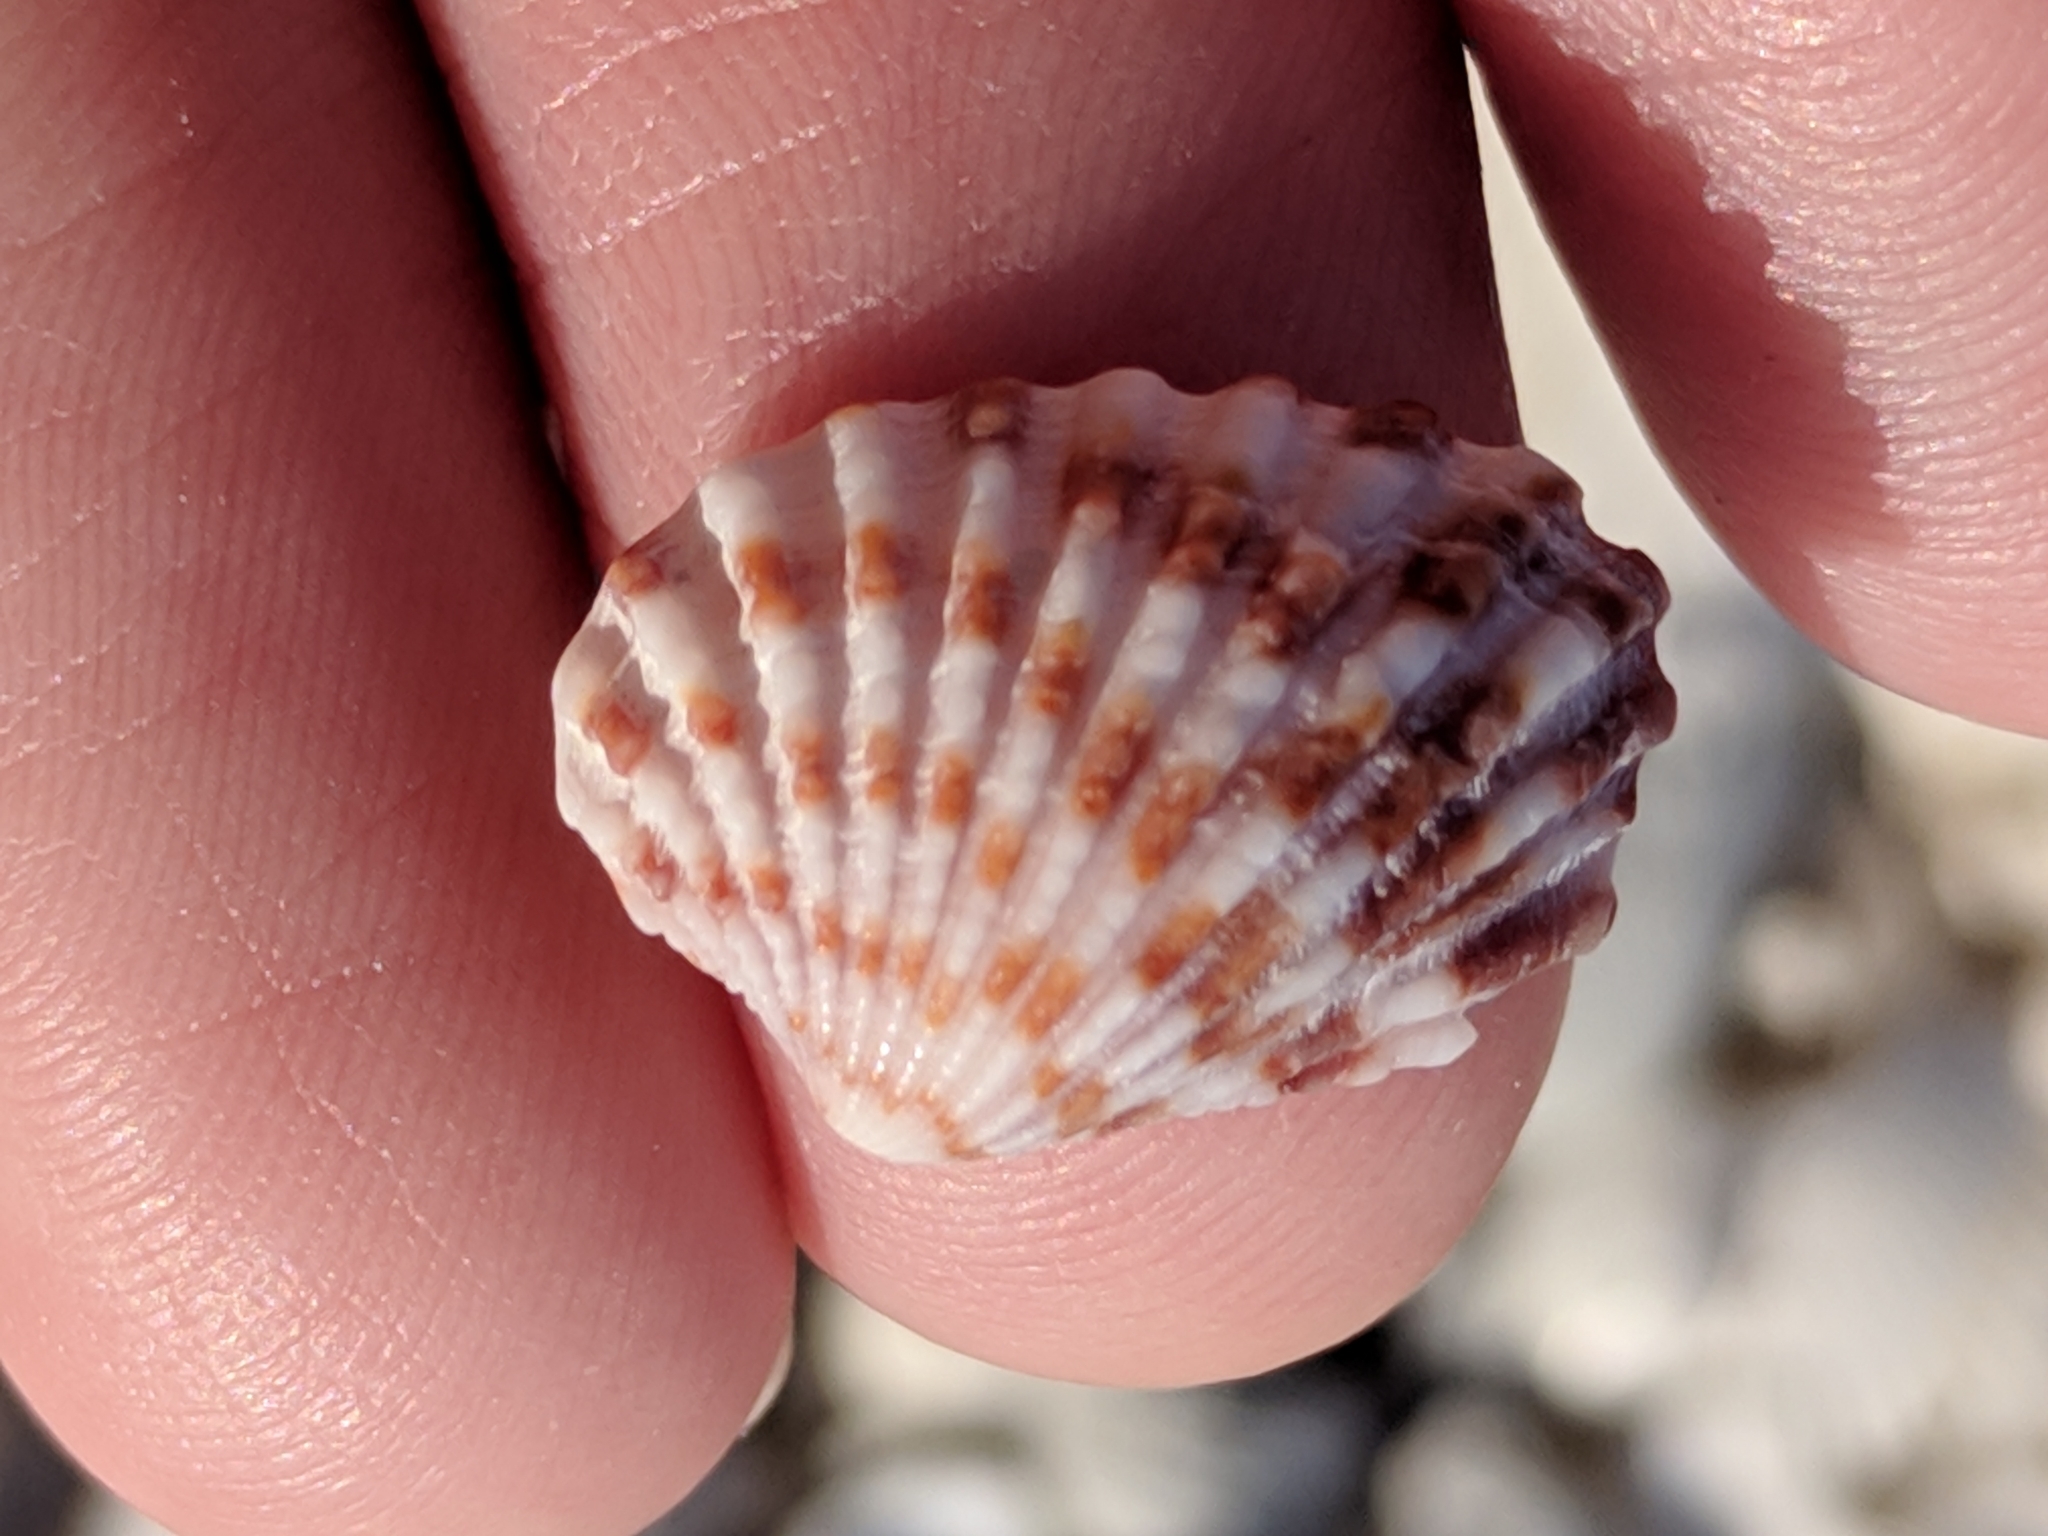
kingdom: Animalia
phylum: Mollusca
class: Bivalvia
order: Carditida
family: Carditidae
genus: Cardites
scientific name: Cardites floridanus
